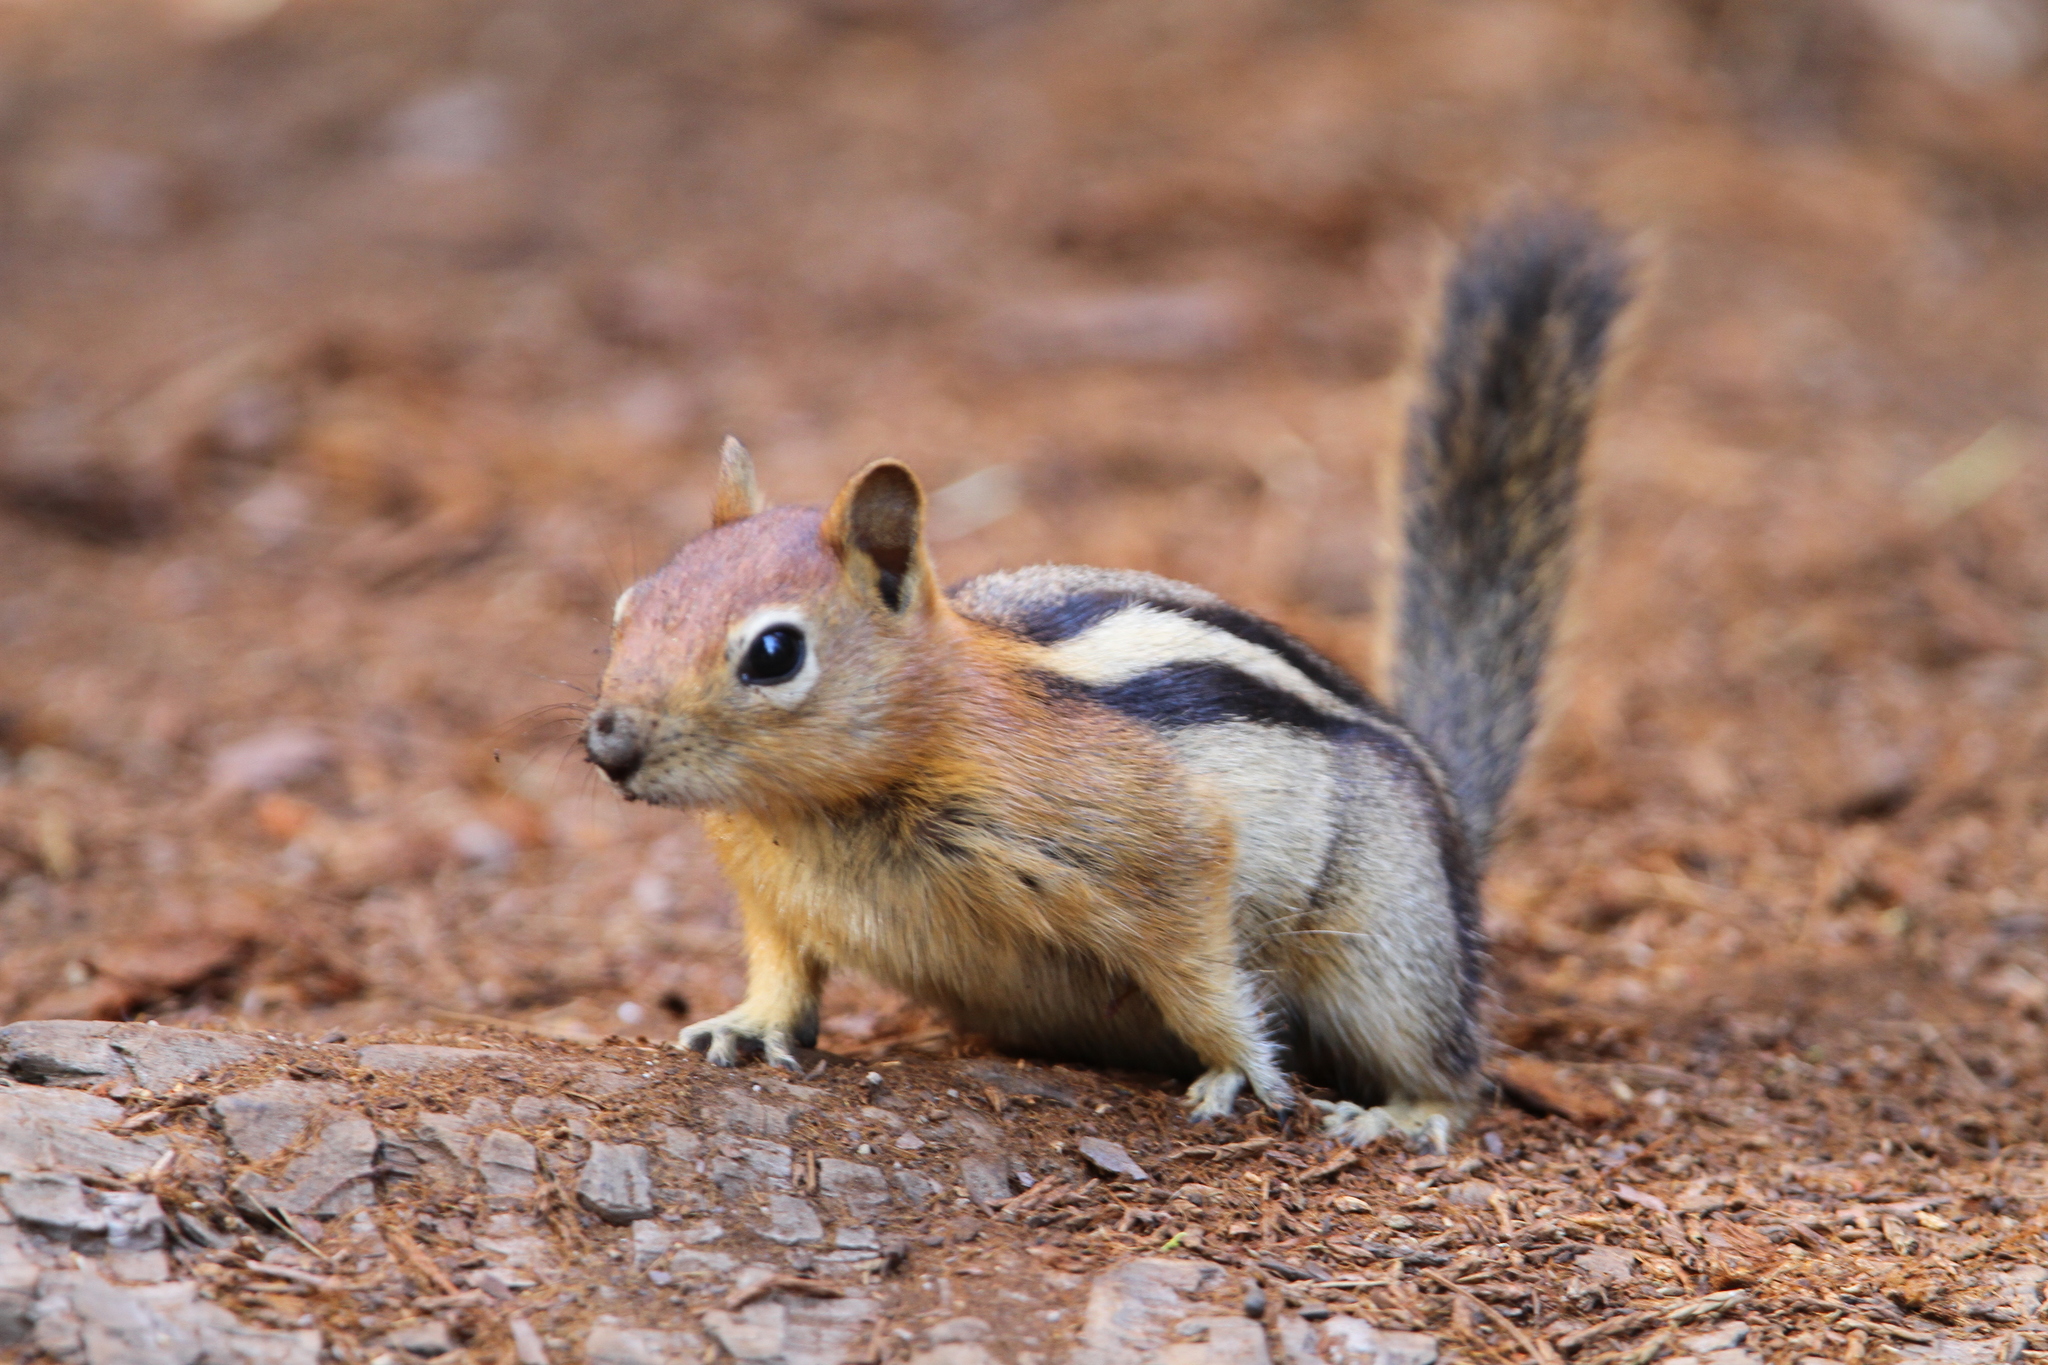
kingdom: Animalia
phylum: Chordata
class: Mammalia
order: Rodentia
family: Sciuridae
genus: Callospermophilus
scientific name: Callospermophilus lateralis
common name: Golden-mantled ground squirrel
